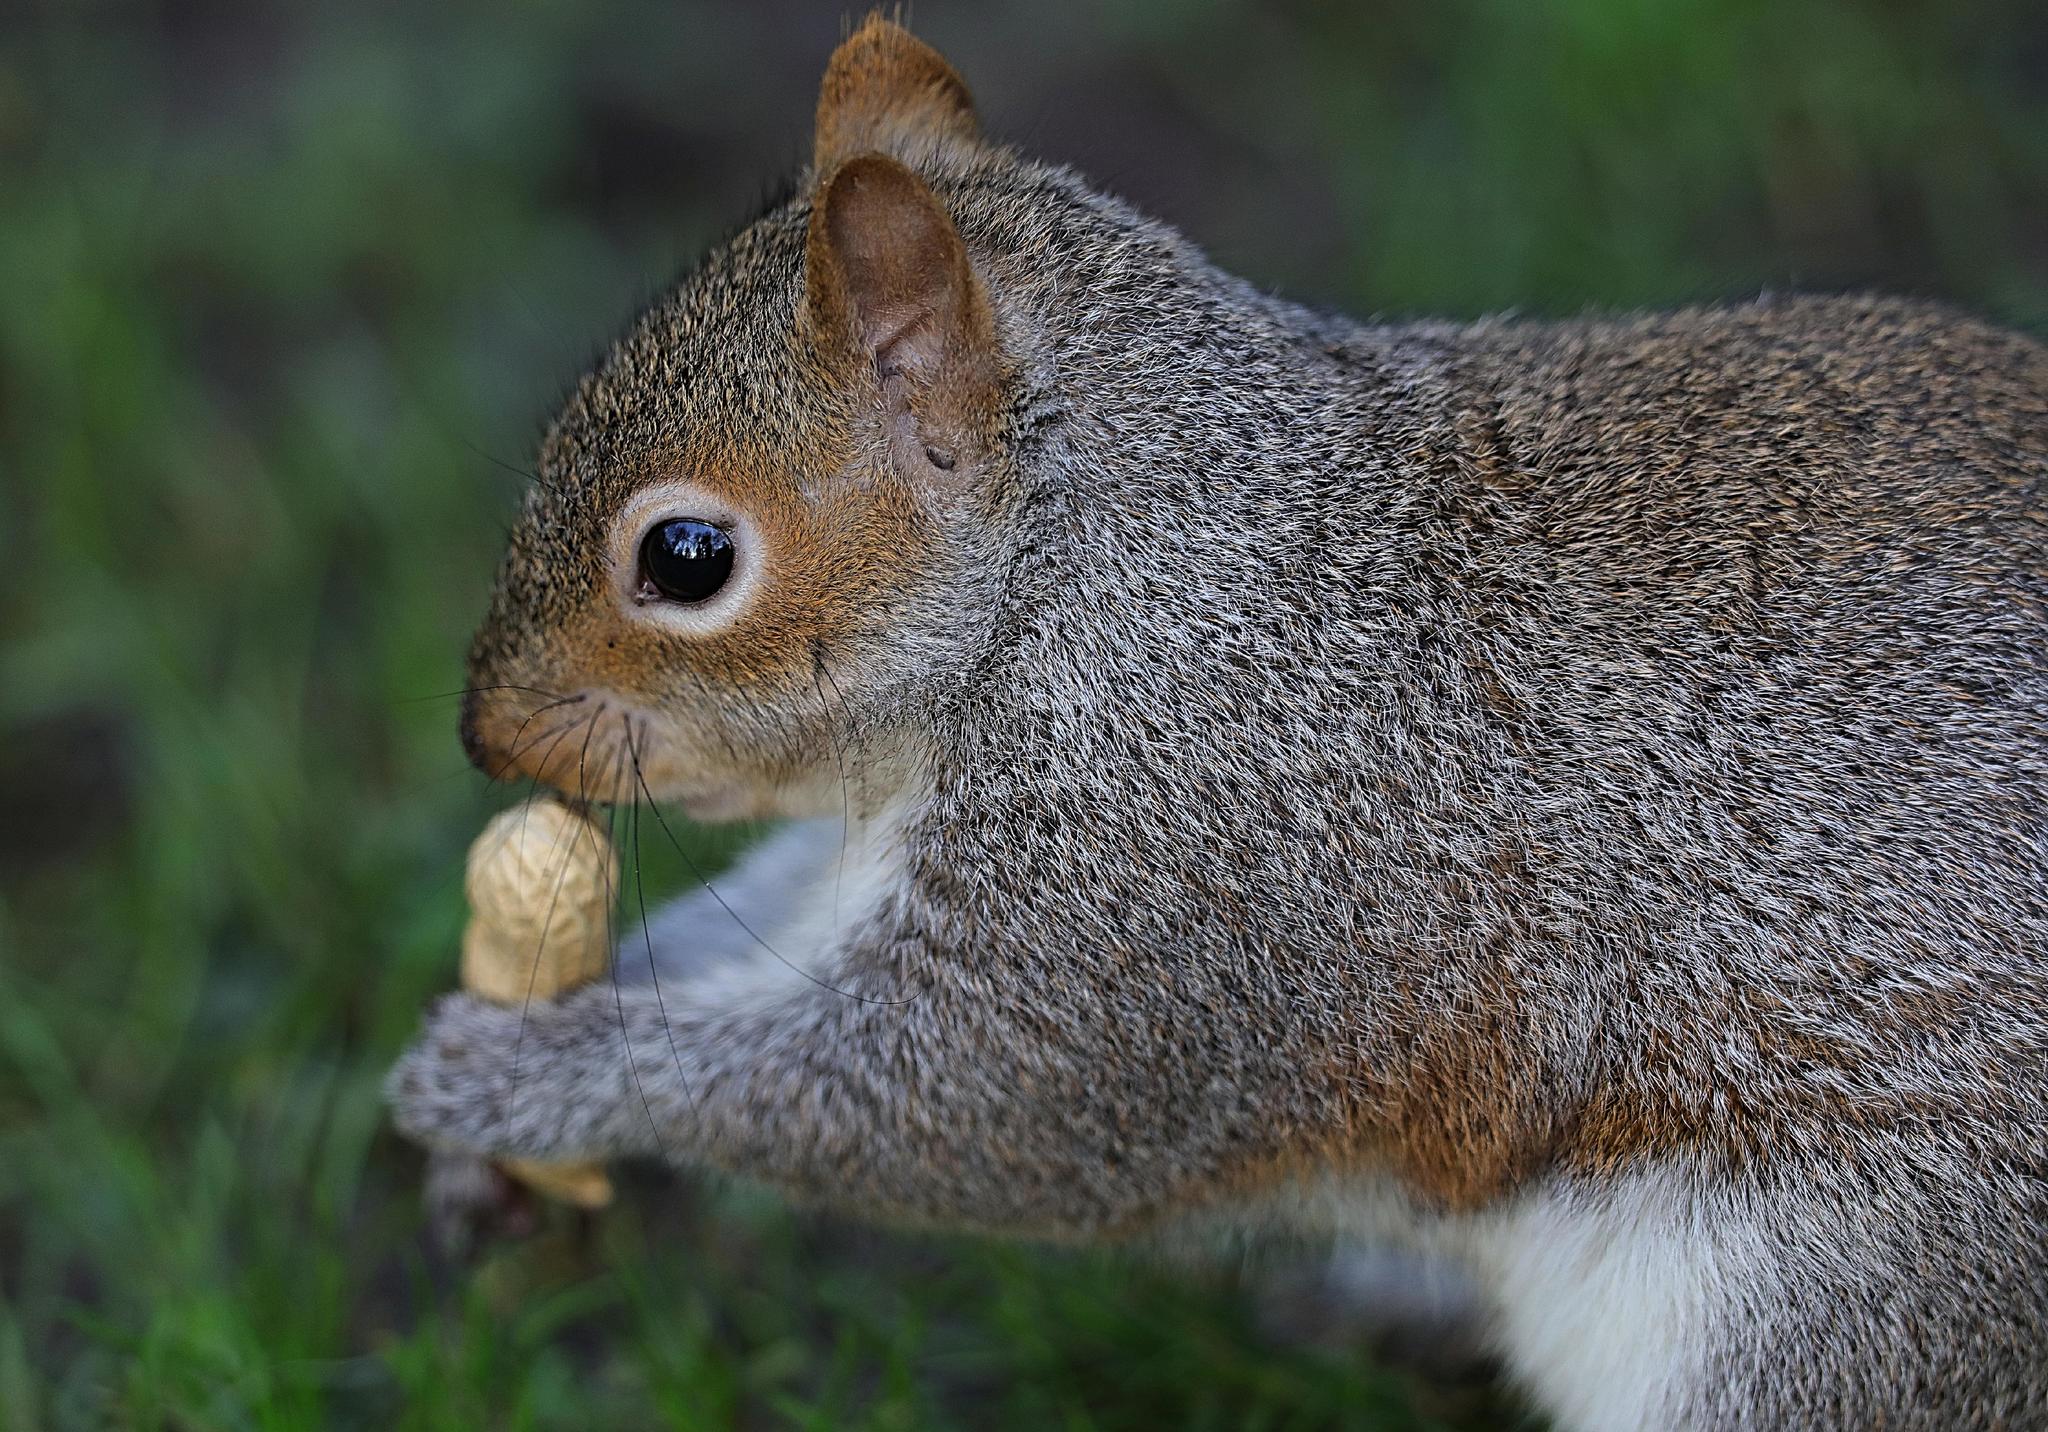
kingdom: Animalia
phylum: Chordata
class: Mammalia
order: Rodentia
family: Sciuridae
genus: Sciurus
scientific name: Sciurus carolinensis
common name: Eastern gray squirrel
